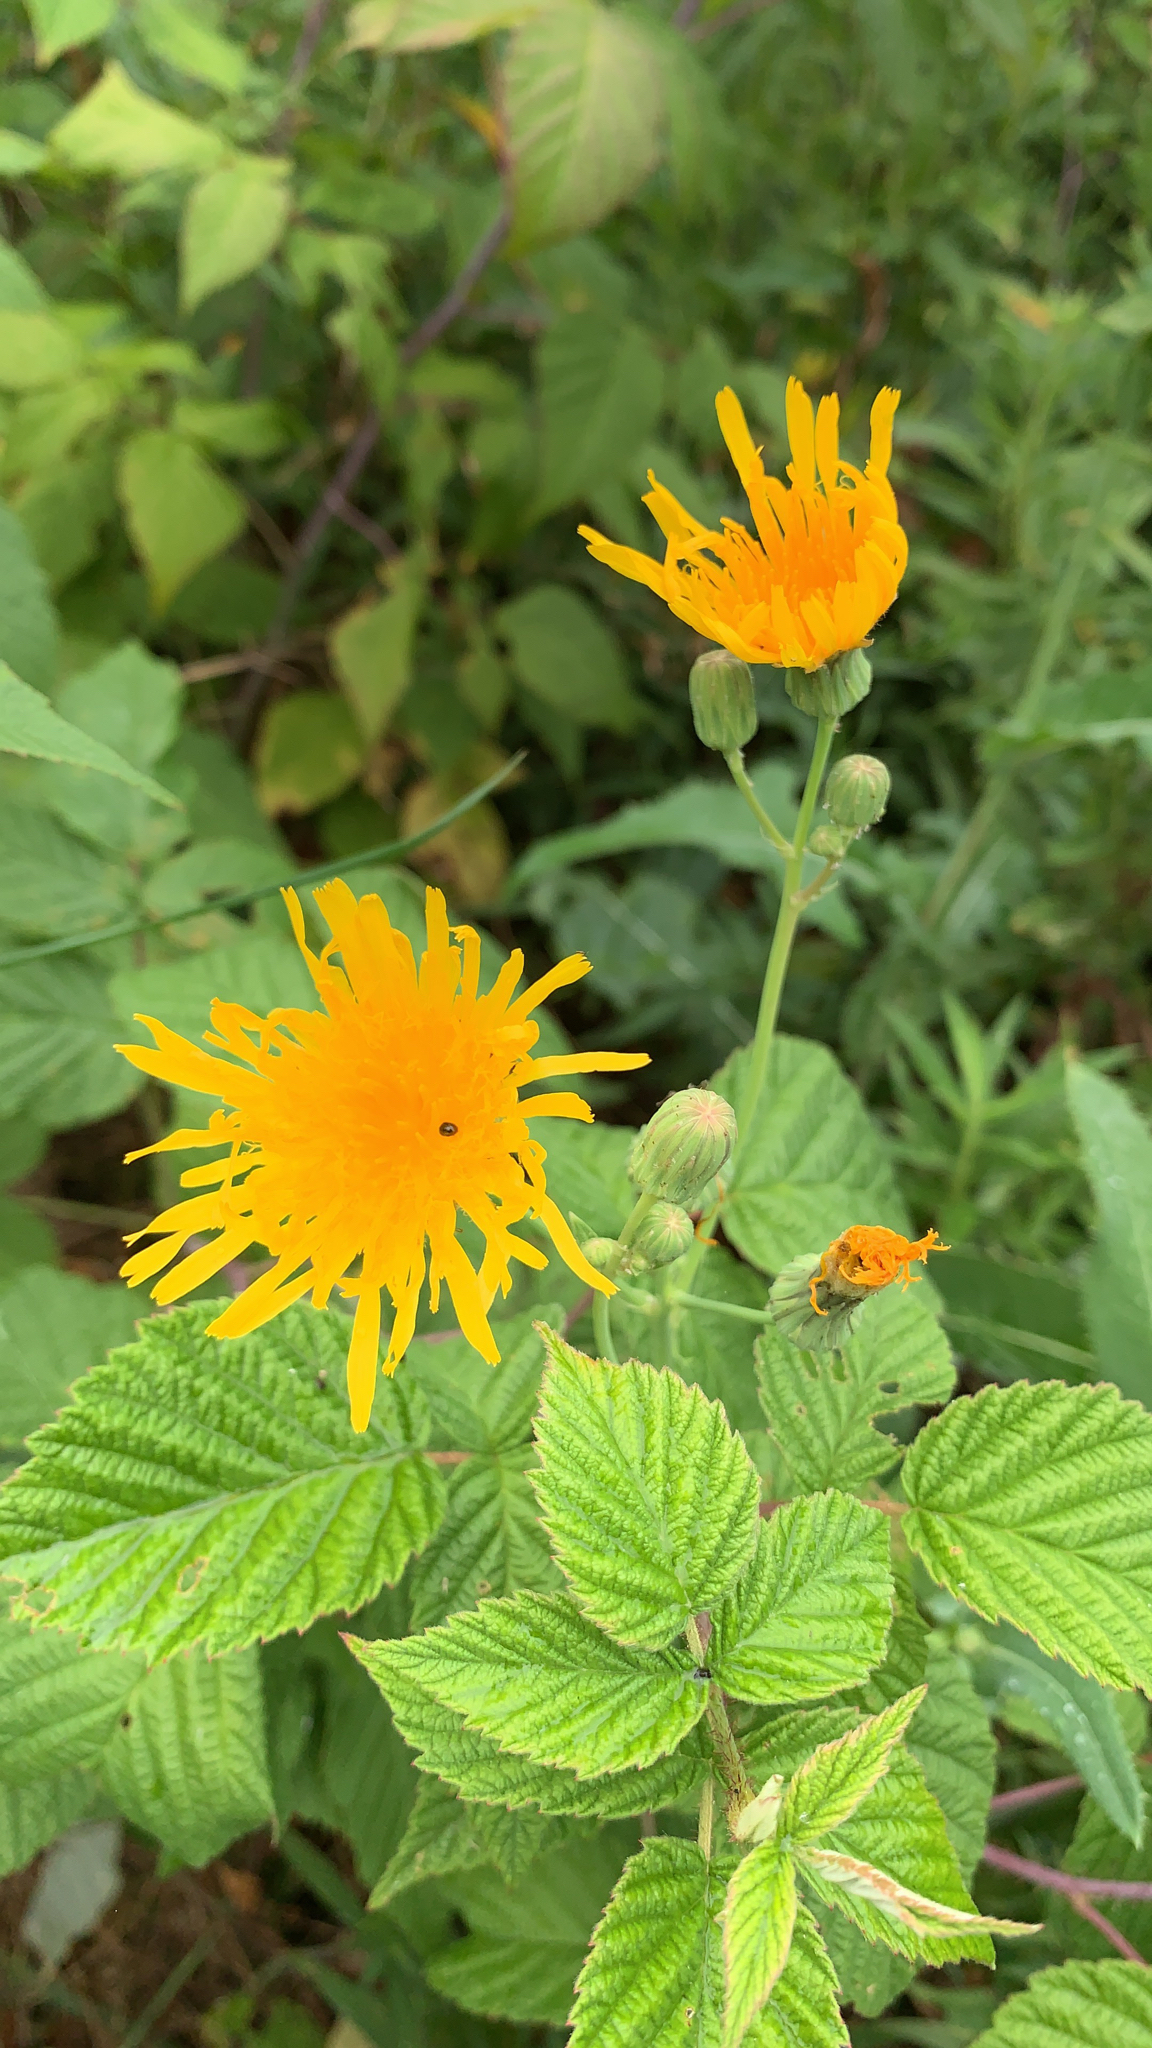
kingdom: Plantae
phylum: Tracheophyta
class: Magnoliopsida
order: Asterales
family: Asteraceae
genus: Sonchus
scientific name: Sonchus arvensis
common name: Perennial sow-thistle
